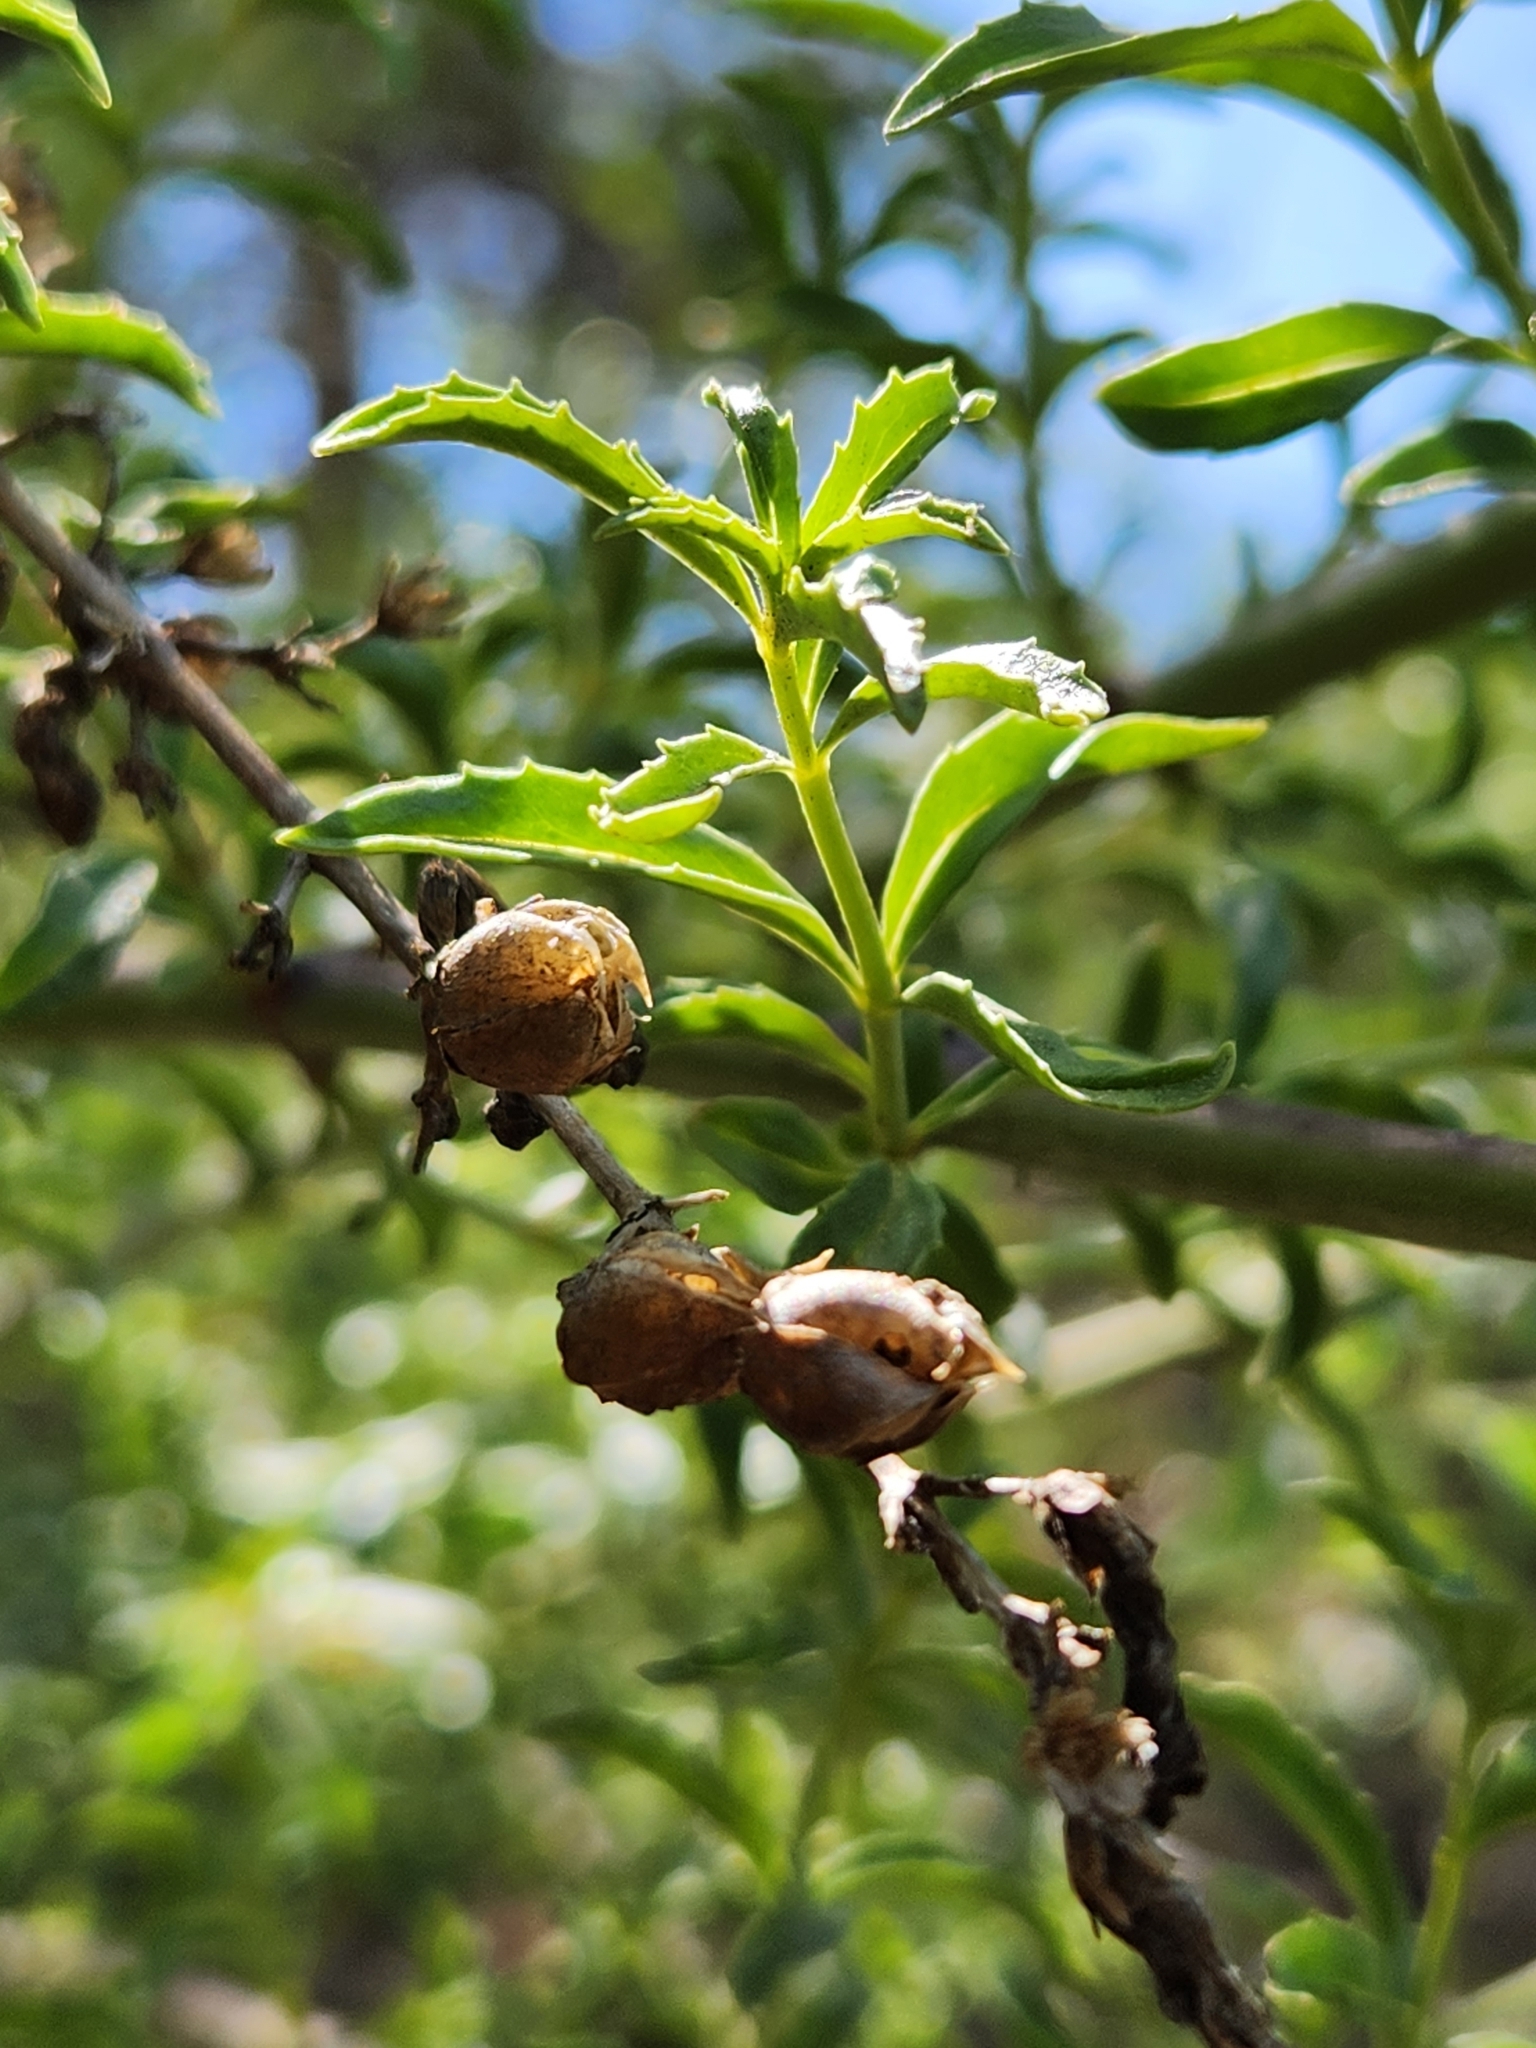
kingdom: Plantae
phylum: Tracheophyta
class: Magnoliopsida
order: Lamiales
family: Plantaginaceae
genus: Keckiella
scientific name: Keckiella ternata
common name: Scarlet keckiella
